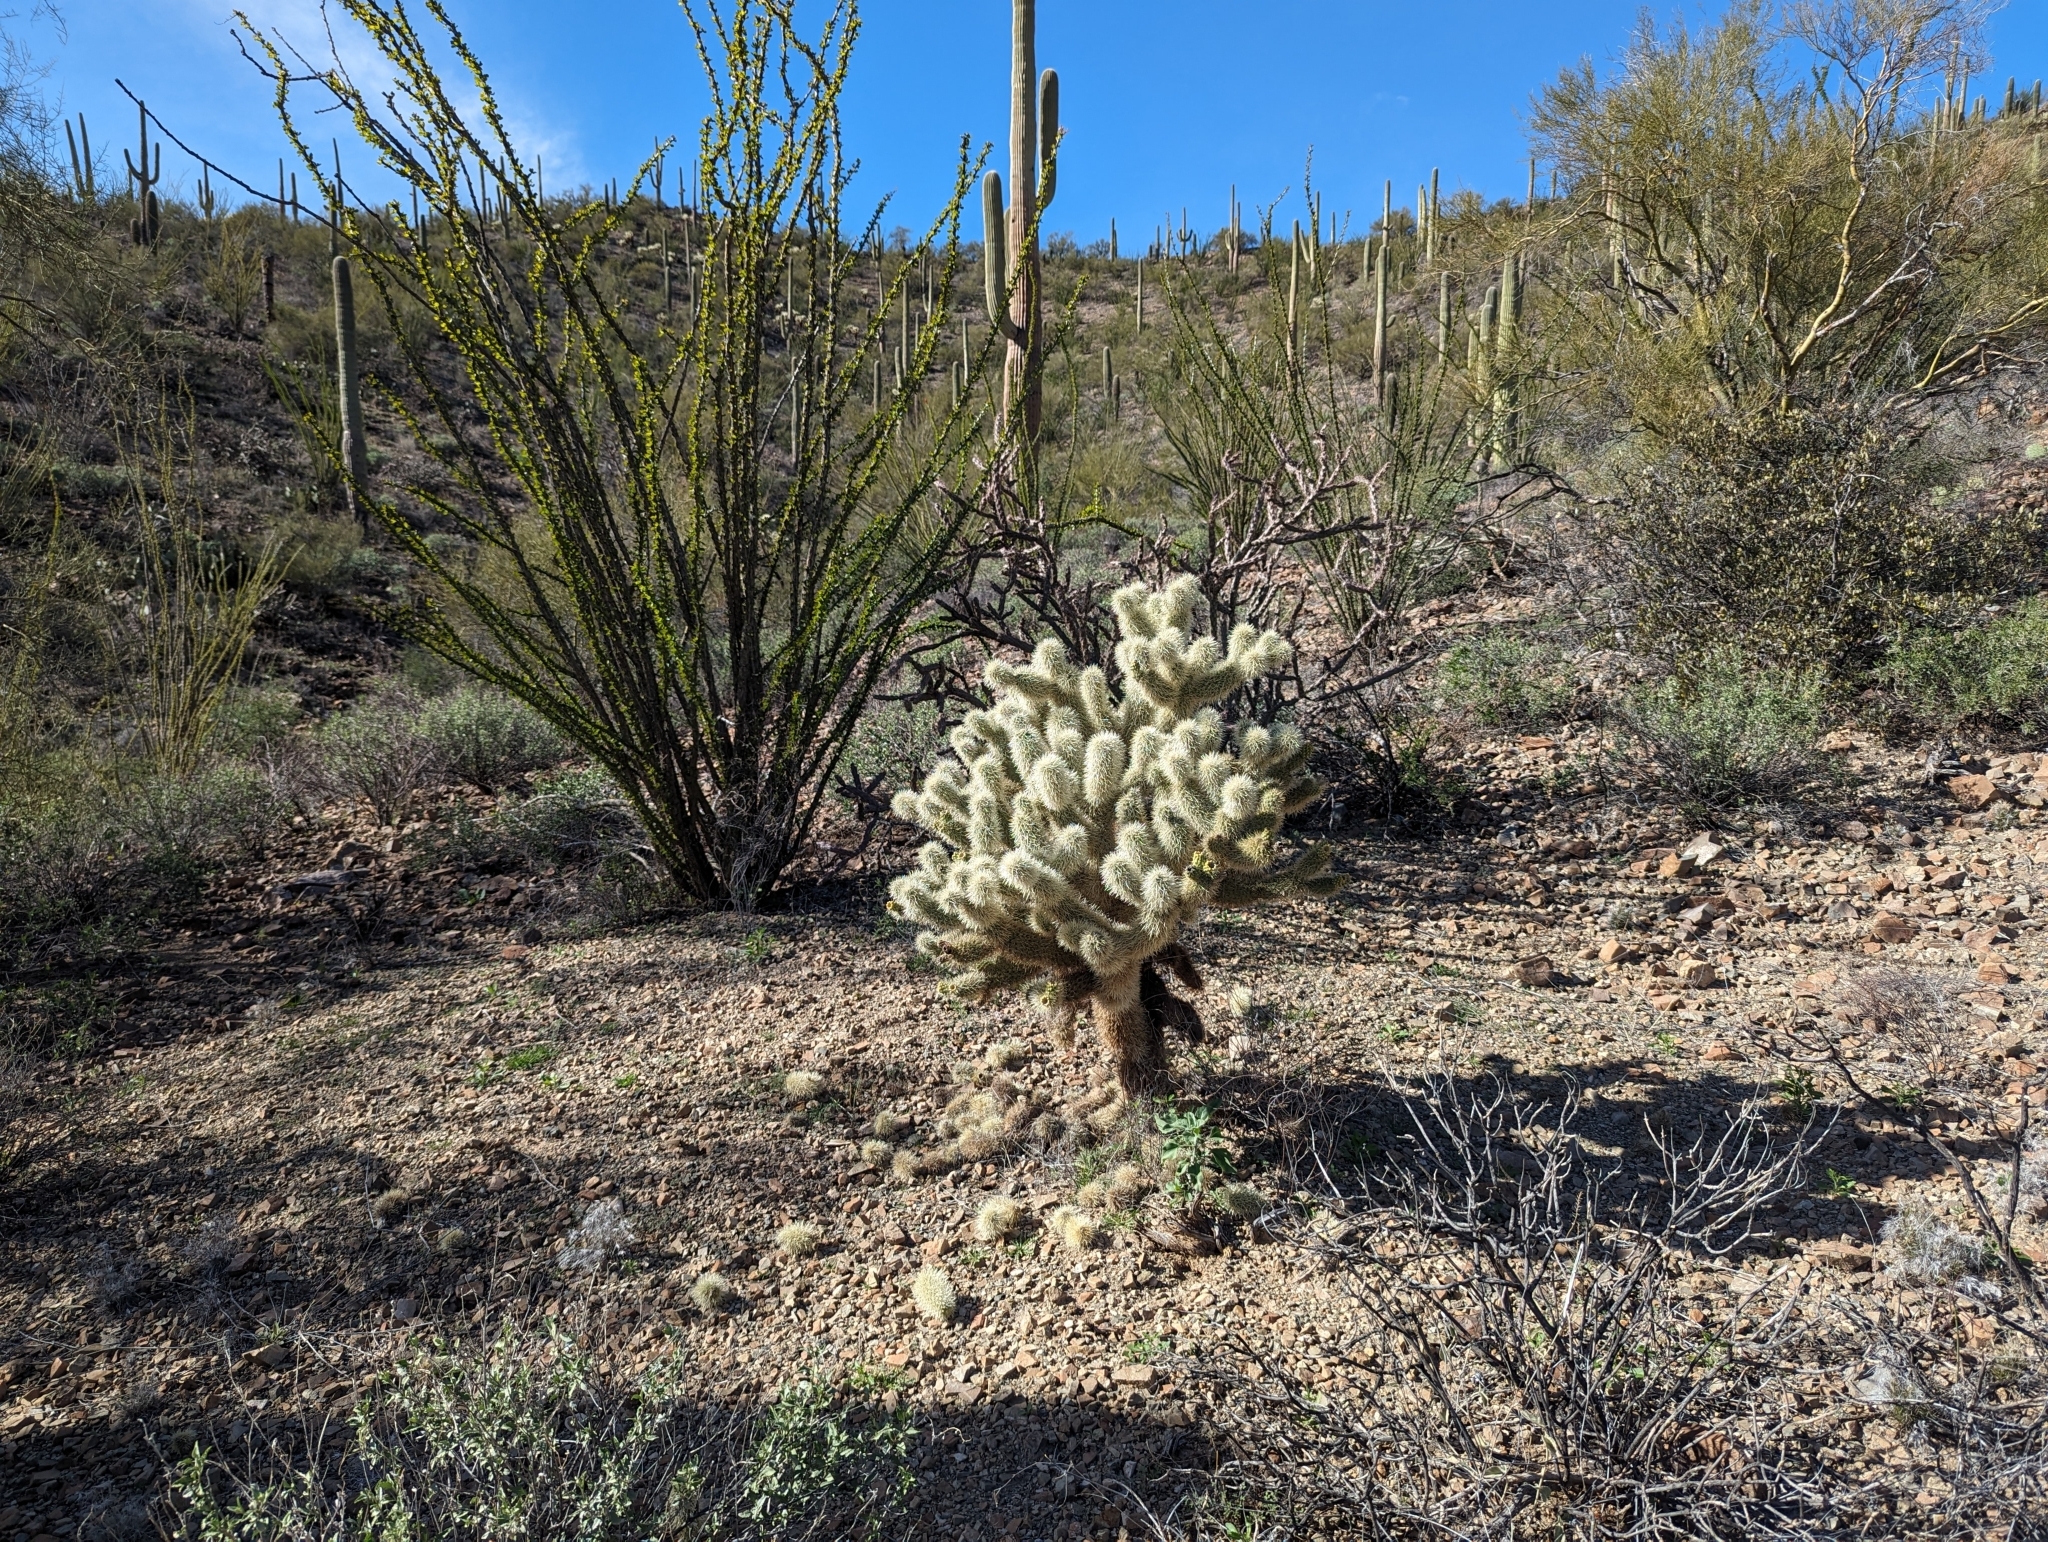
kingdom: Plantae
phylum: Tracheophyta
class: Magnoliopsida
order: Caryophyllales
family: Cactaceae
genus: Cylindropuntia
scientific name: Cylindropuntia fosbergii
